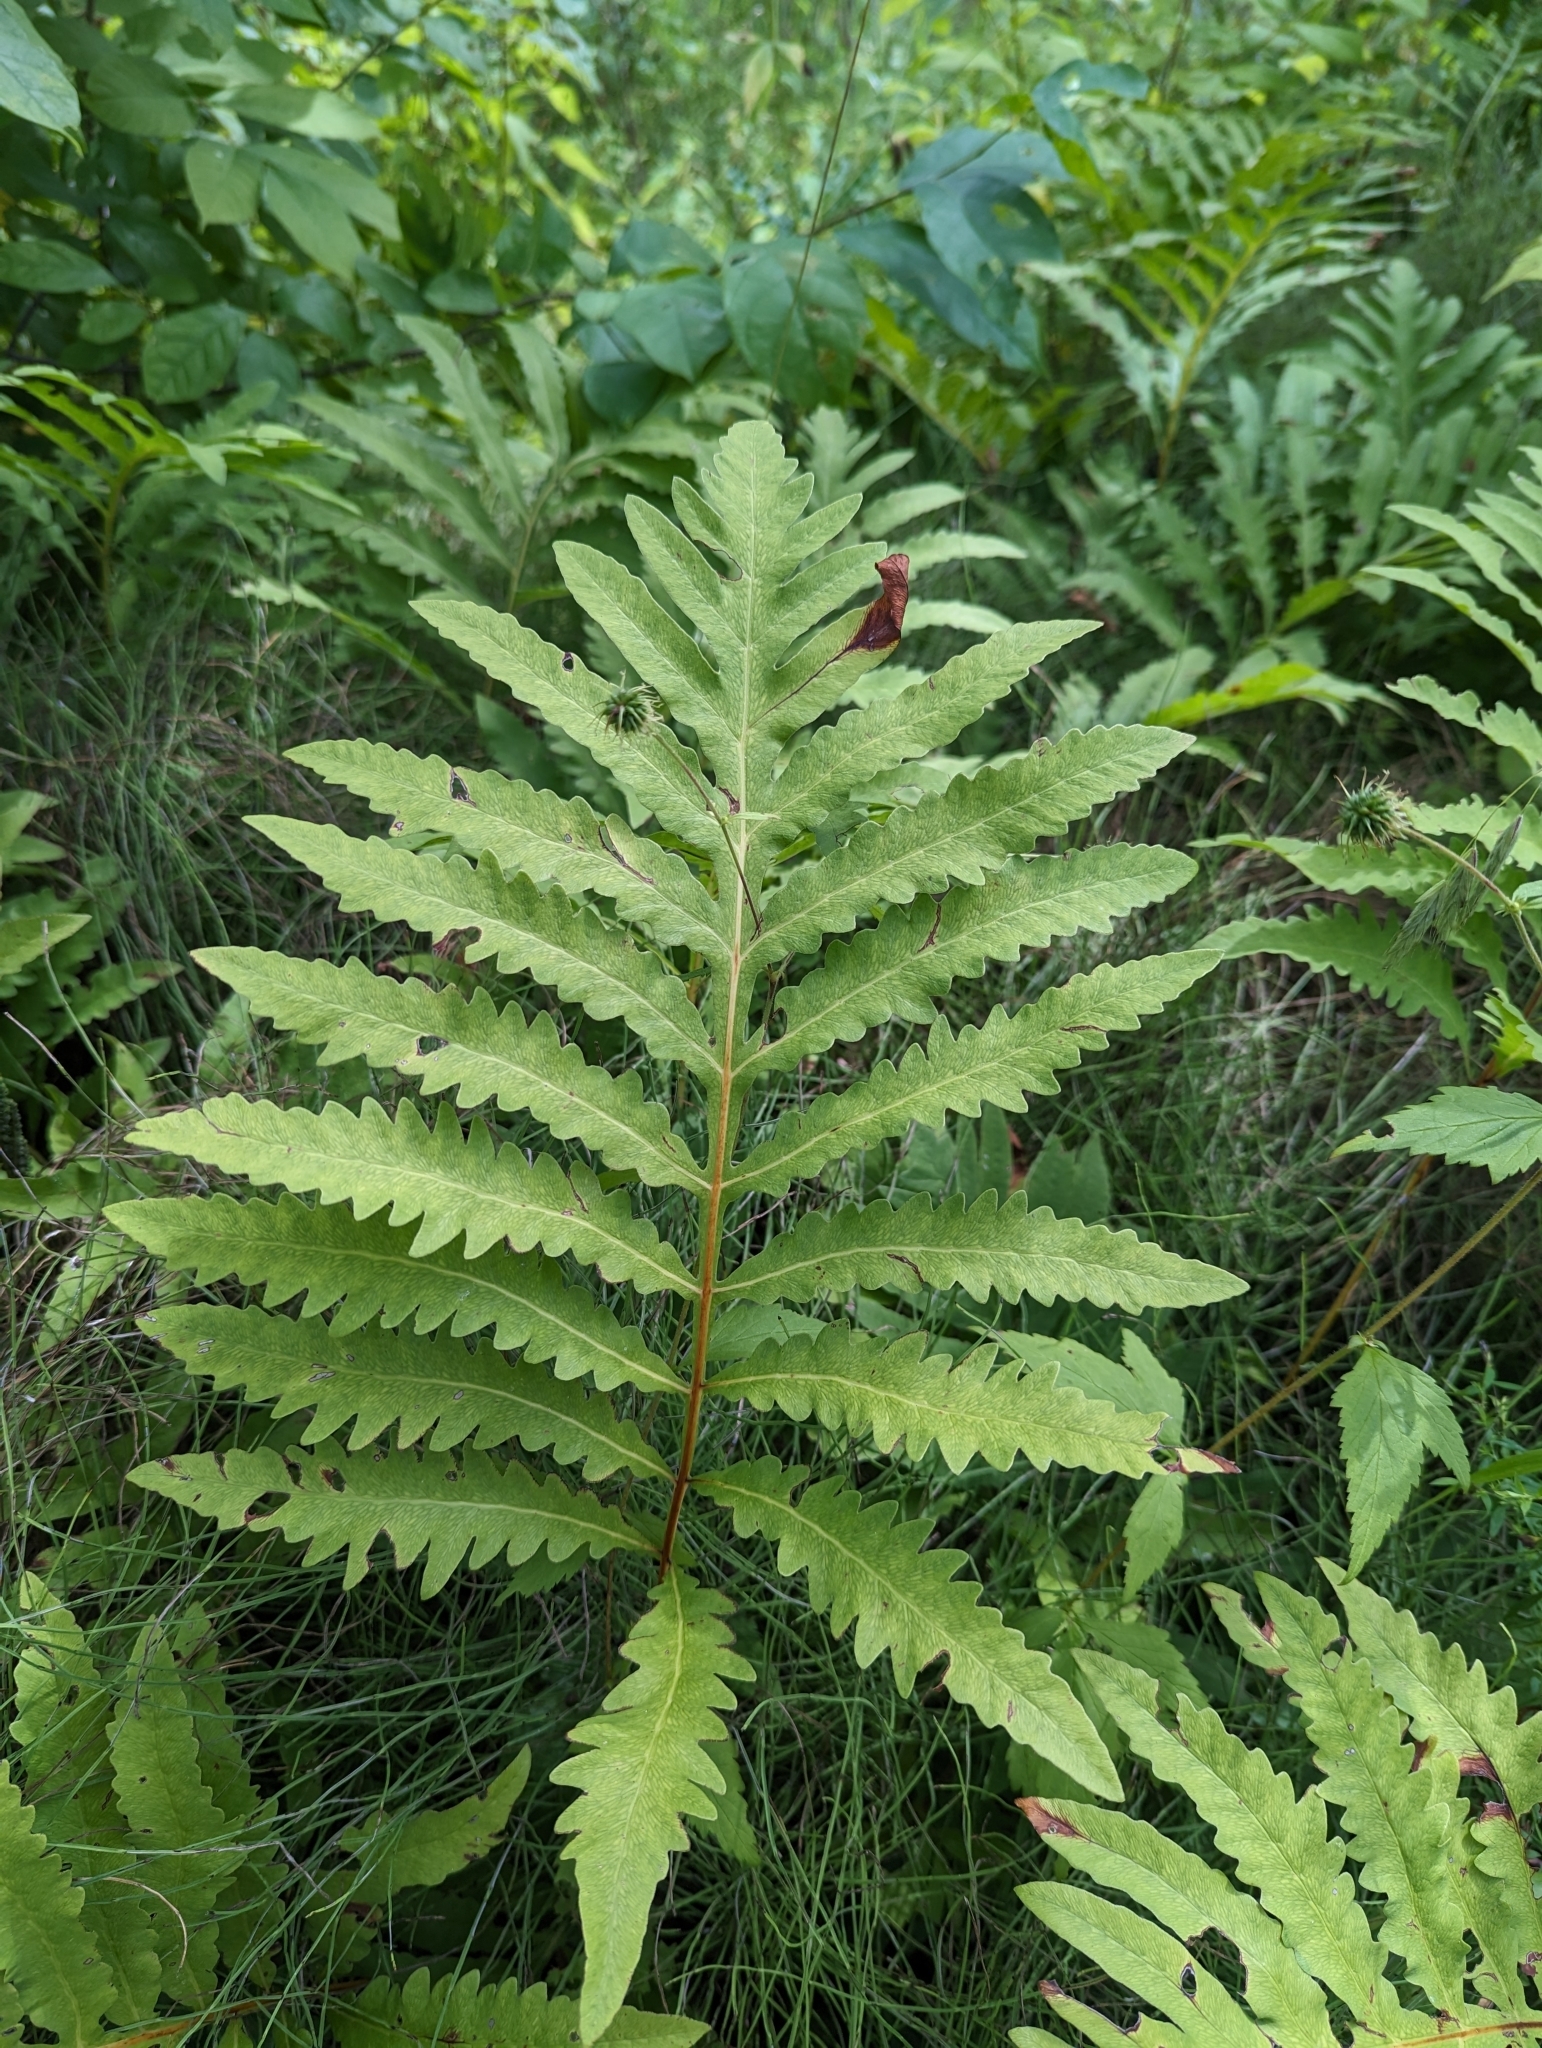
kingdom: Plantae
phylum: Tracheophyta
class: Polypodiopsida
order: Polypodiales
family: Onocleaceae
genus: Onoclea
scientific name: Onoclea sensibilis
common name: Sensitive fern
